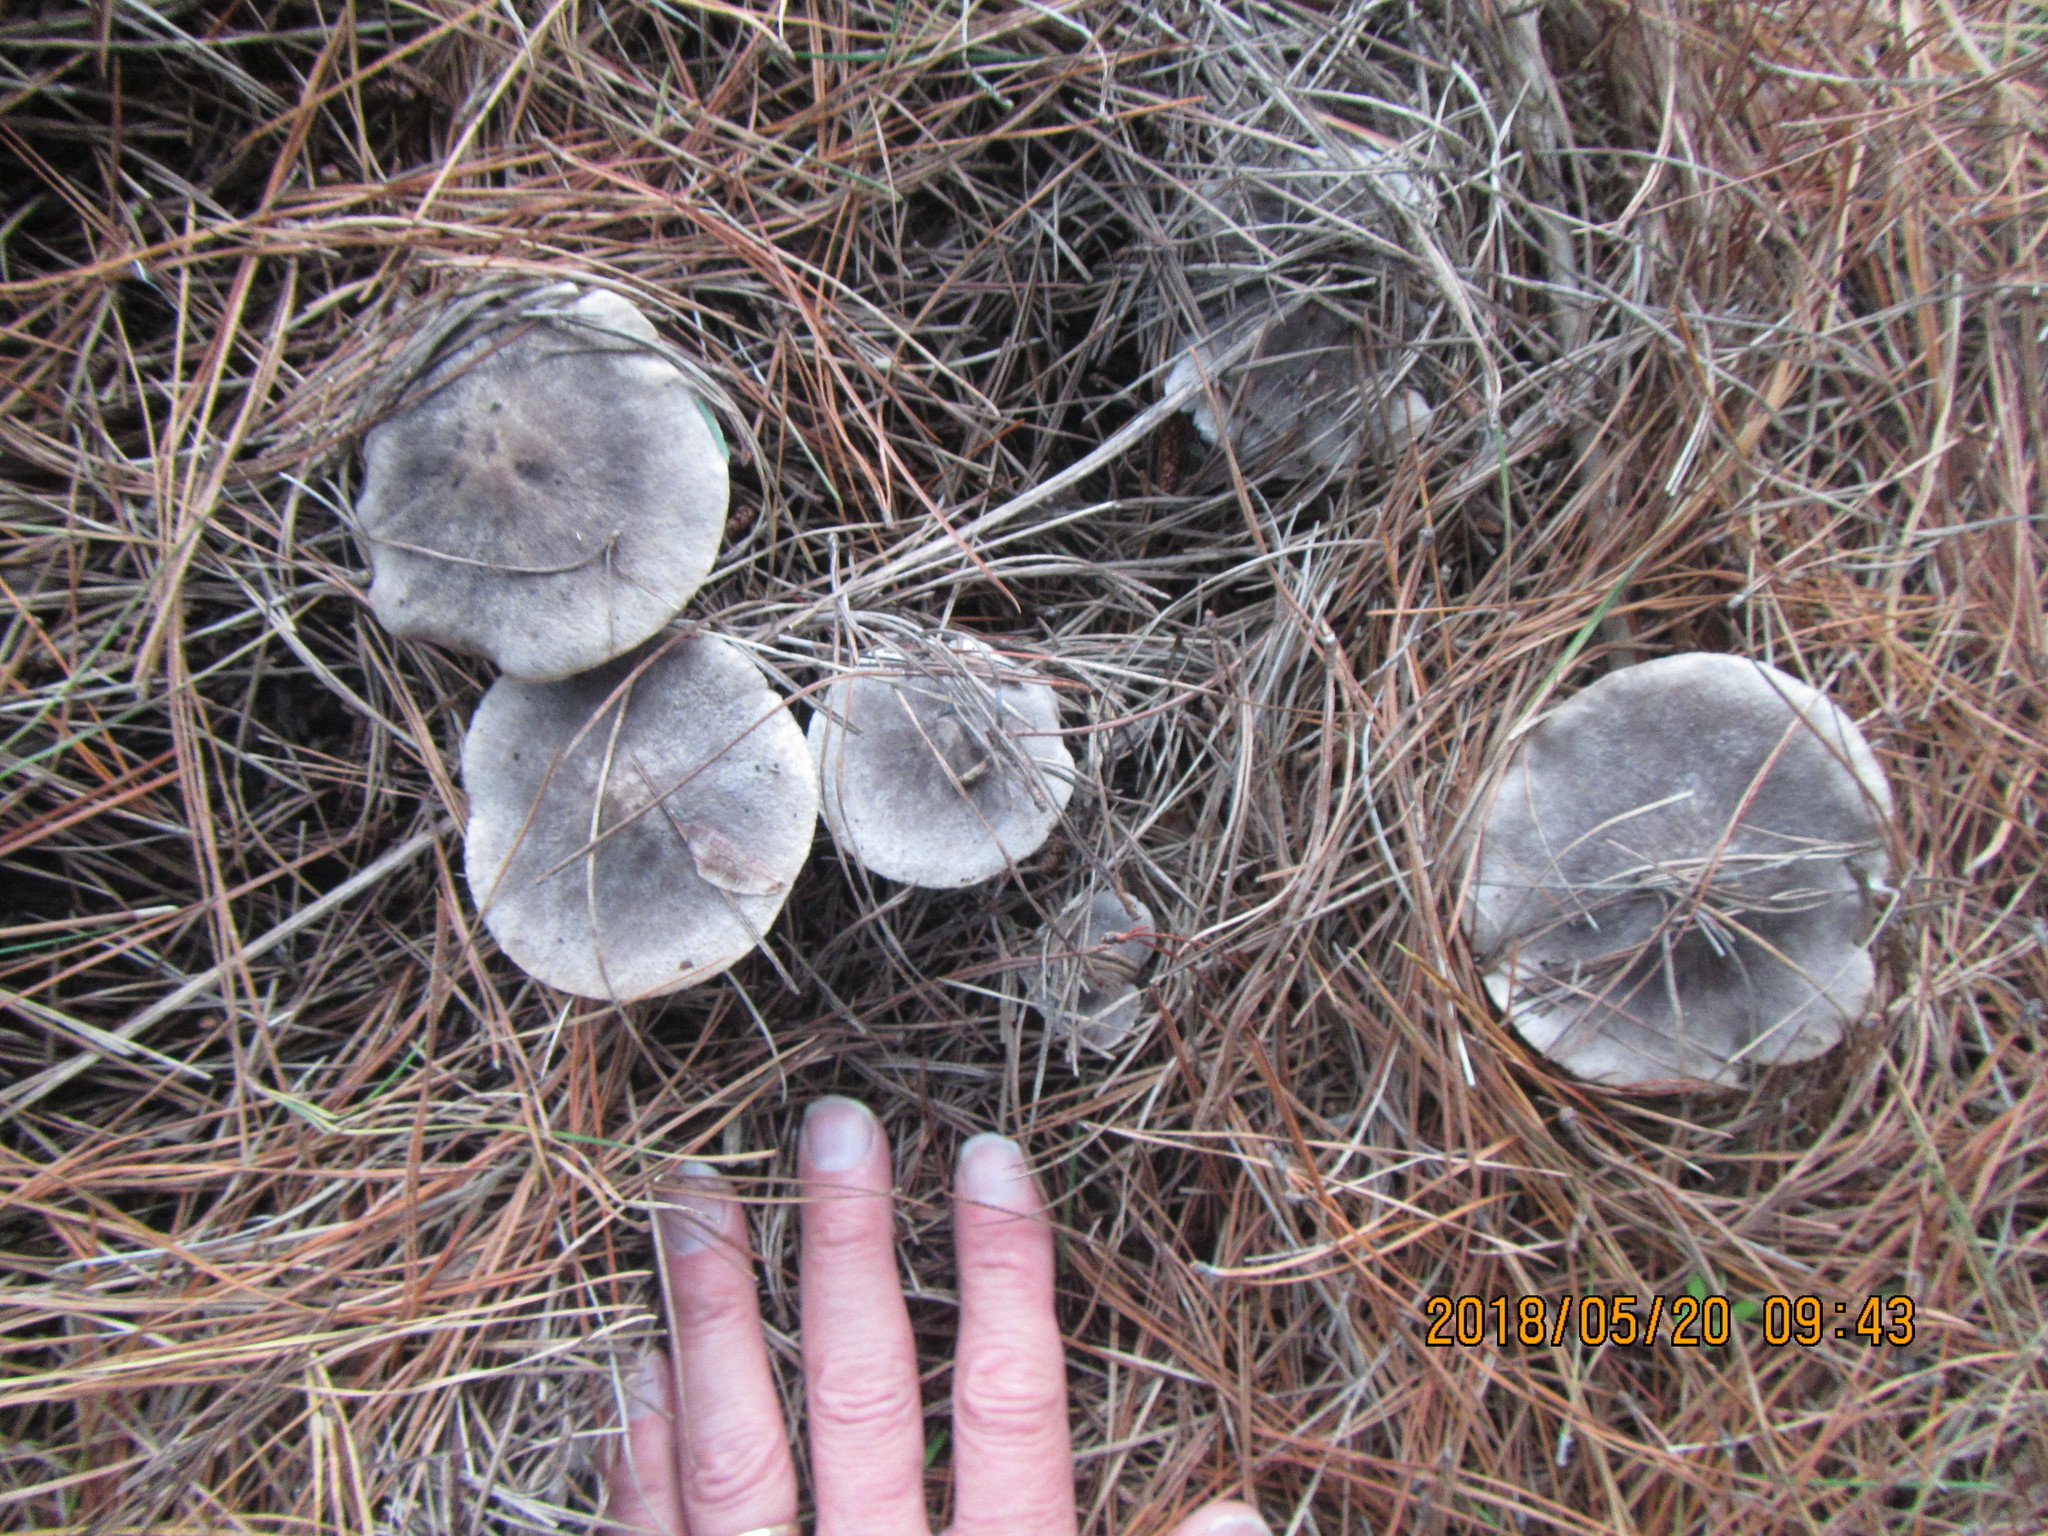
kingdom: Fungi
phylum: Basidiomycota
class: Agaricomycetes
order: Agaricales
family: Tricholomataceae
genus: Tricholoma
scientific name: Tricholoma terreum
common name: Grey knight
